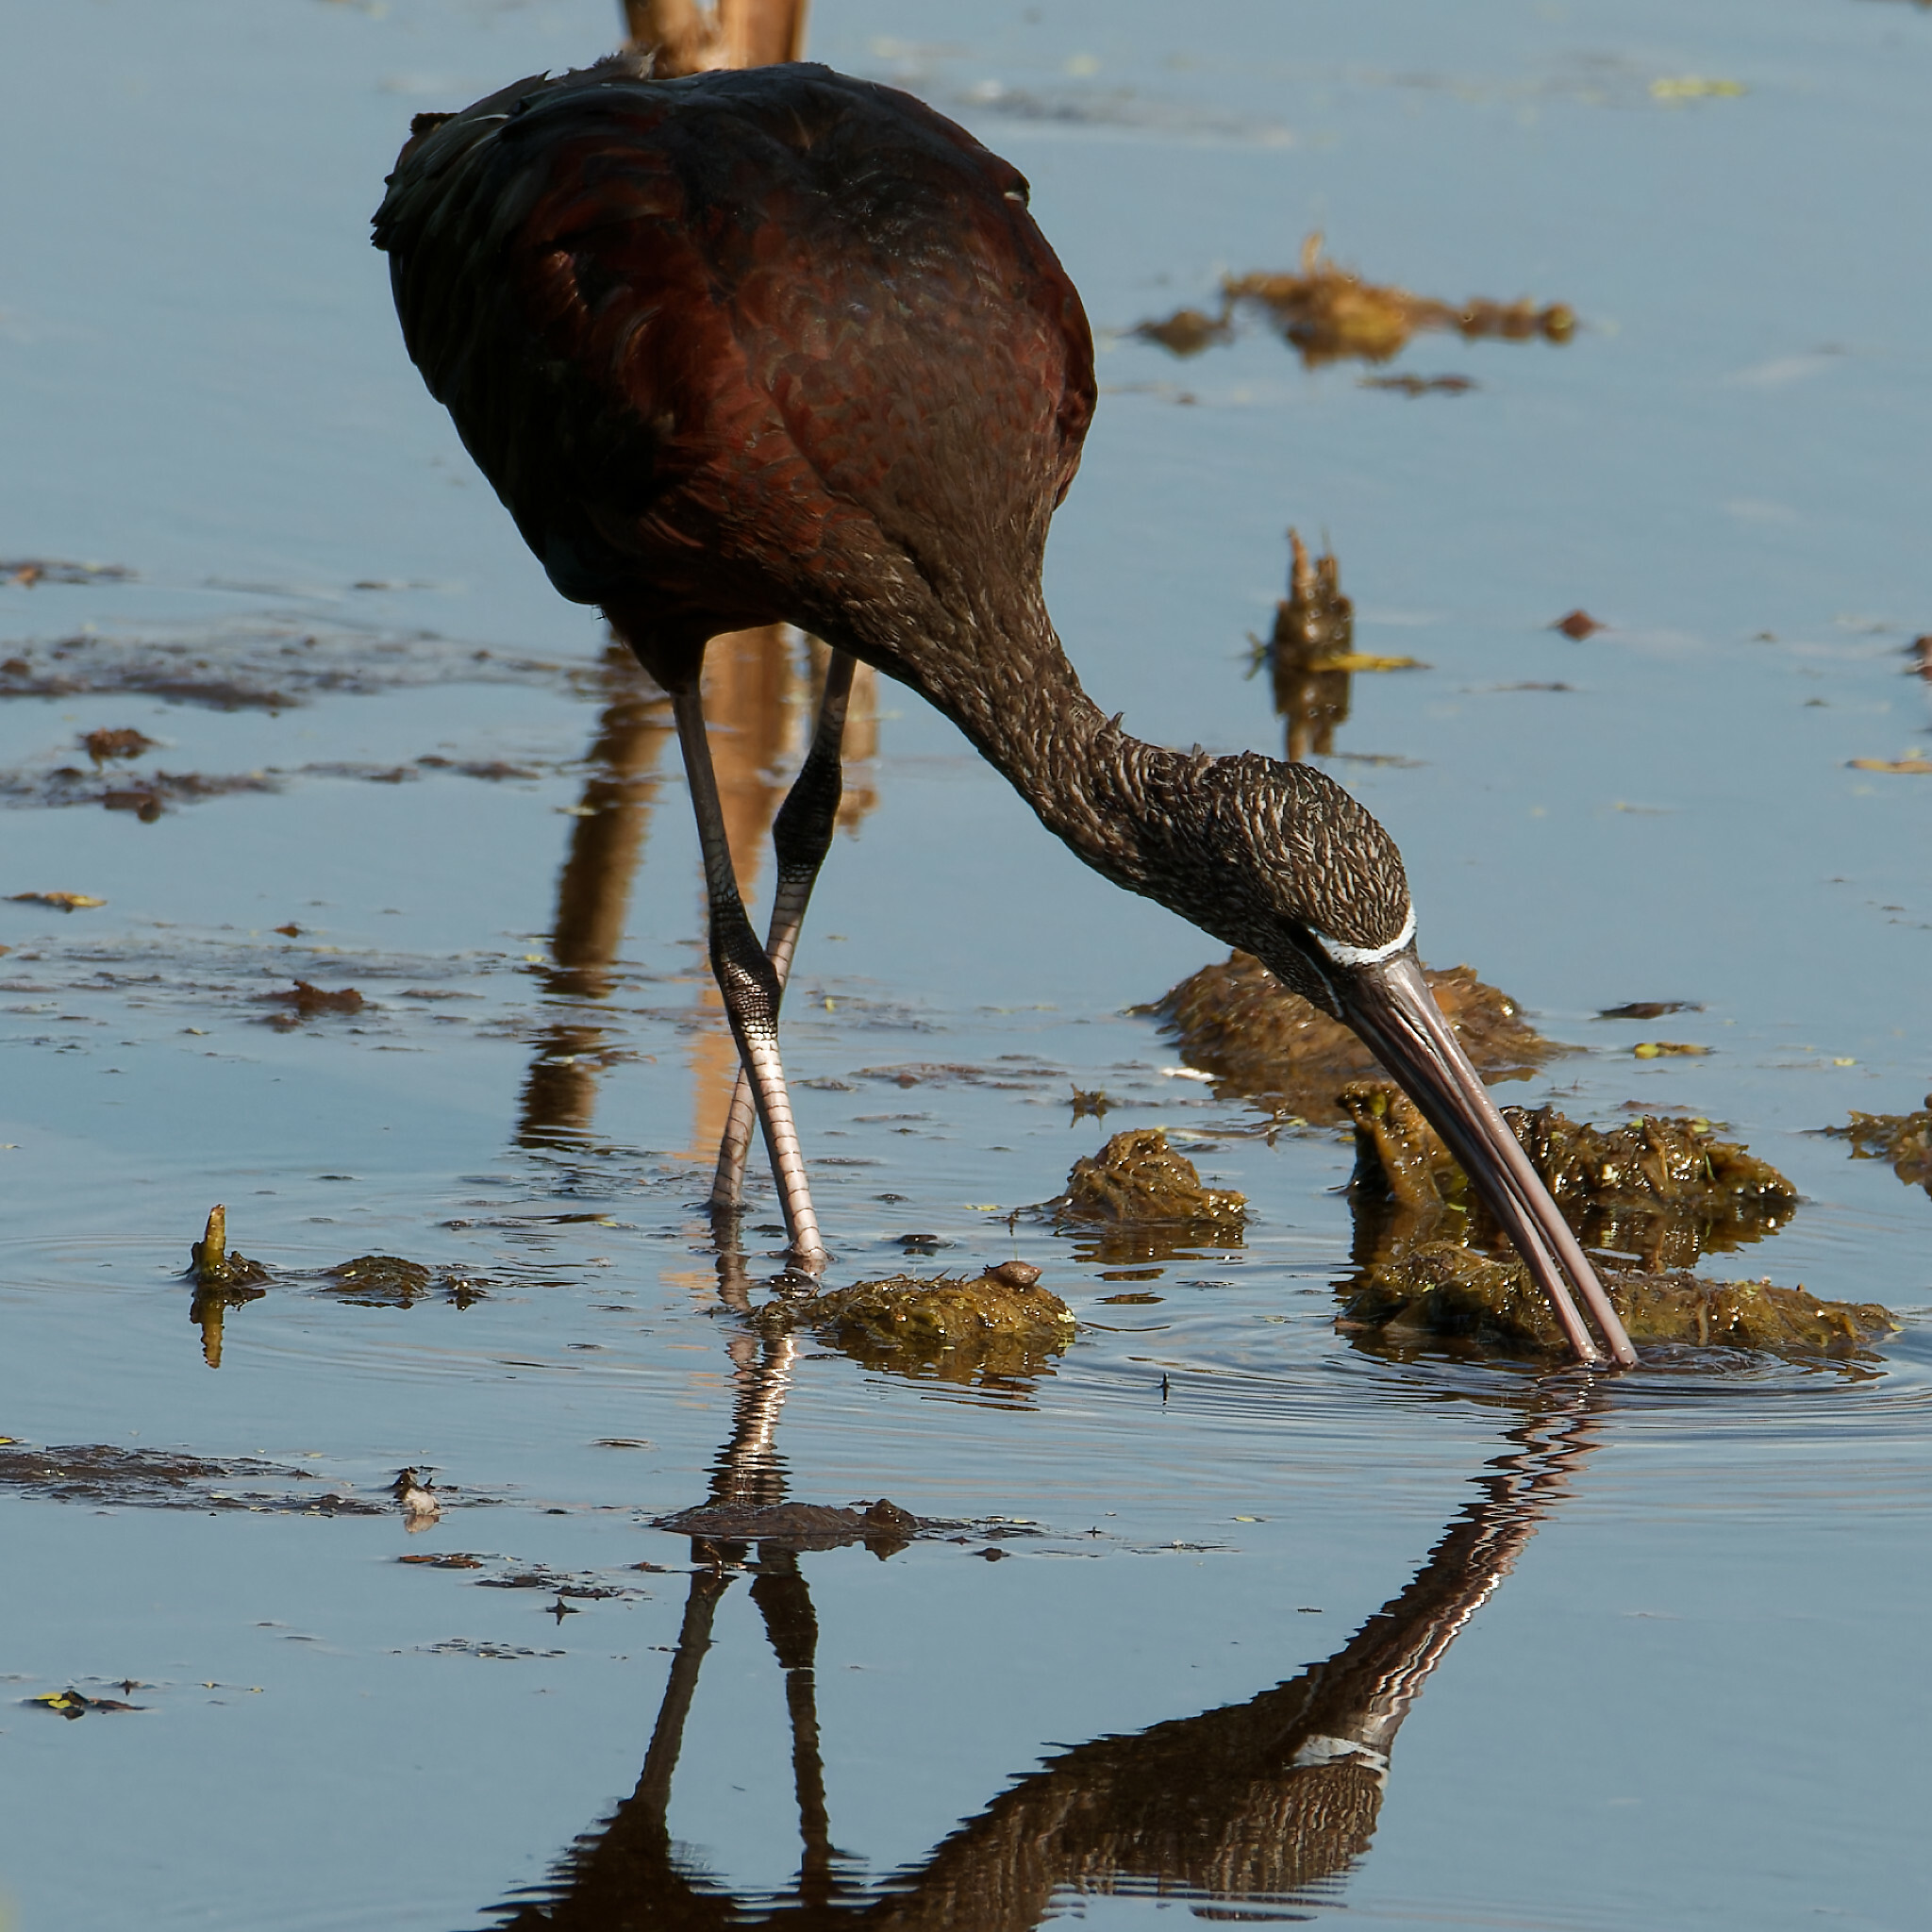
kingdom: Animalia
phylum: Chordata
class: Aves
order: Pelecaniformes
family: Threskiornithidae
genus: Plegadis
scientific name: Plegadis falcinellus
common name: Glossy ibis
